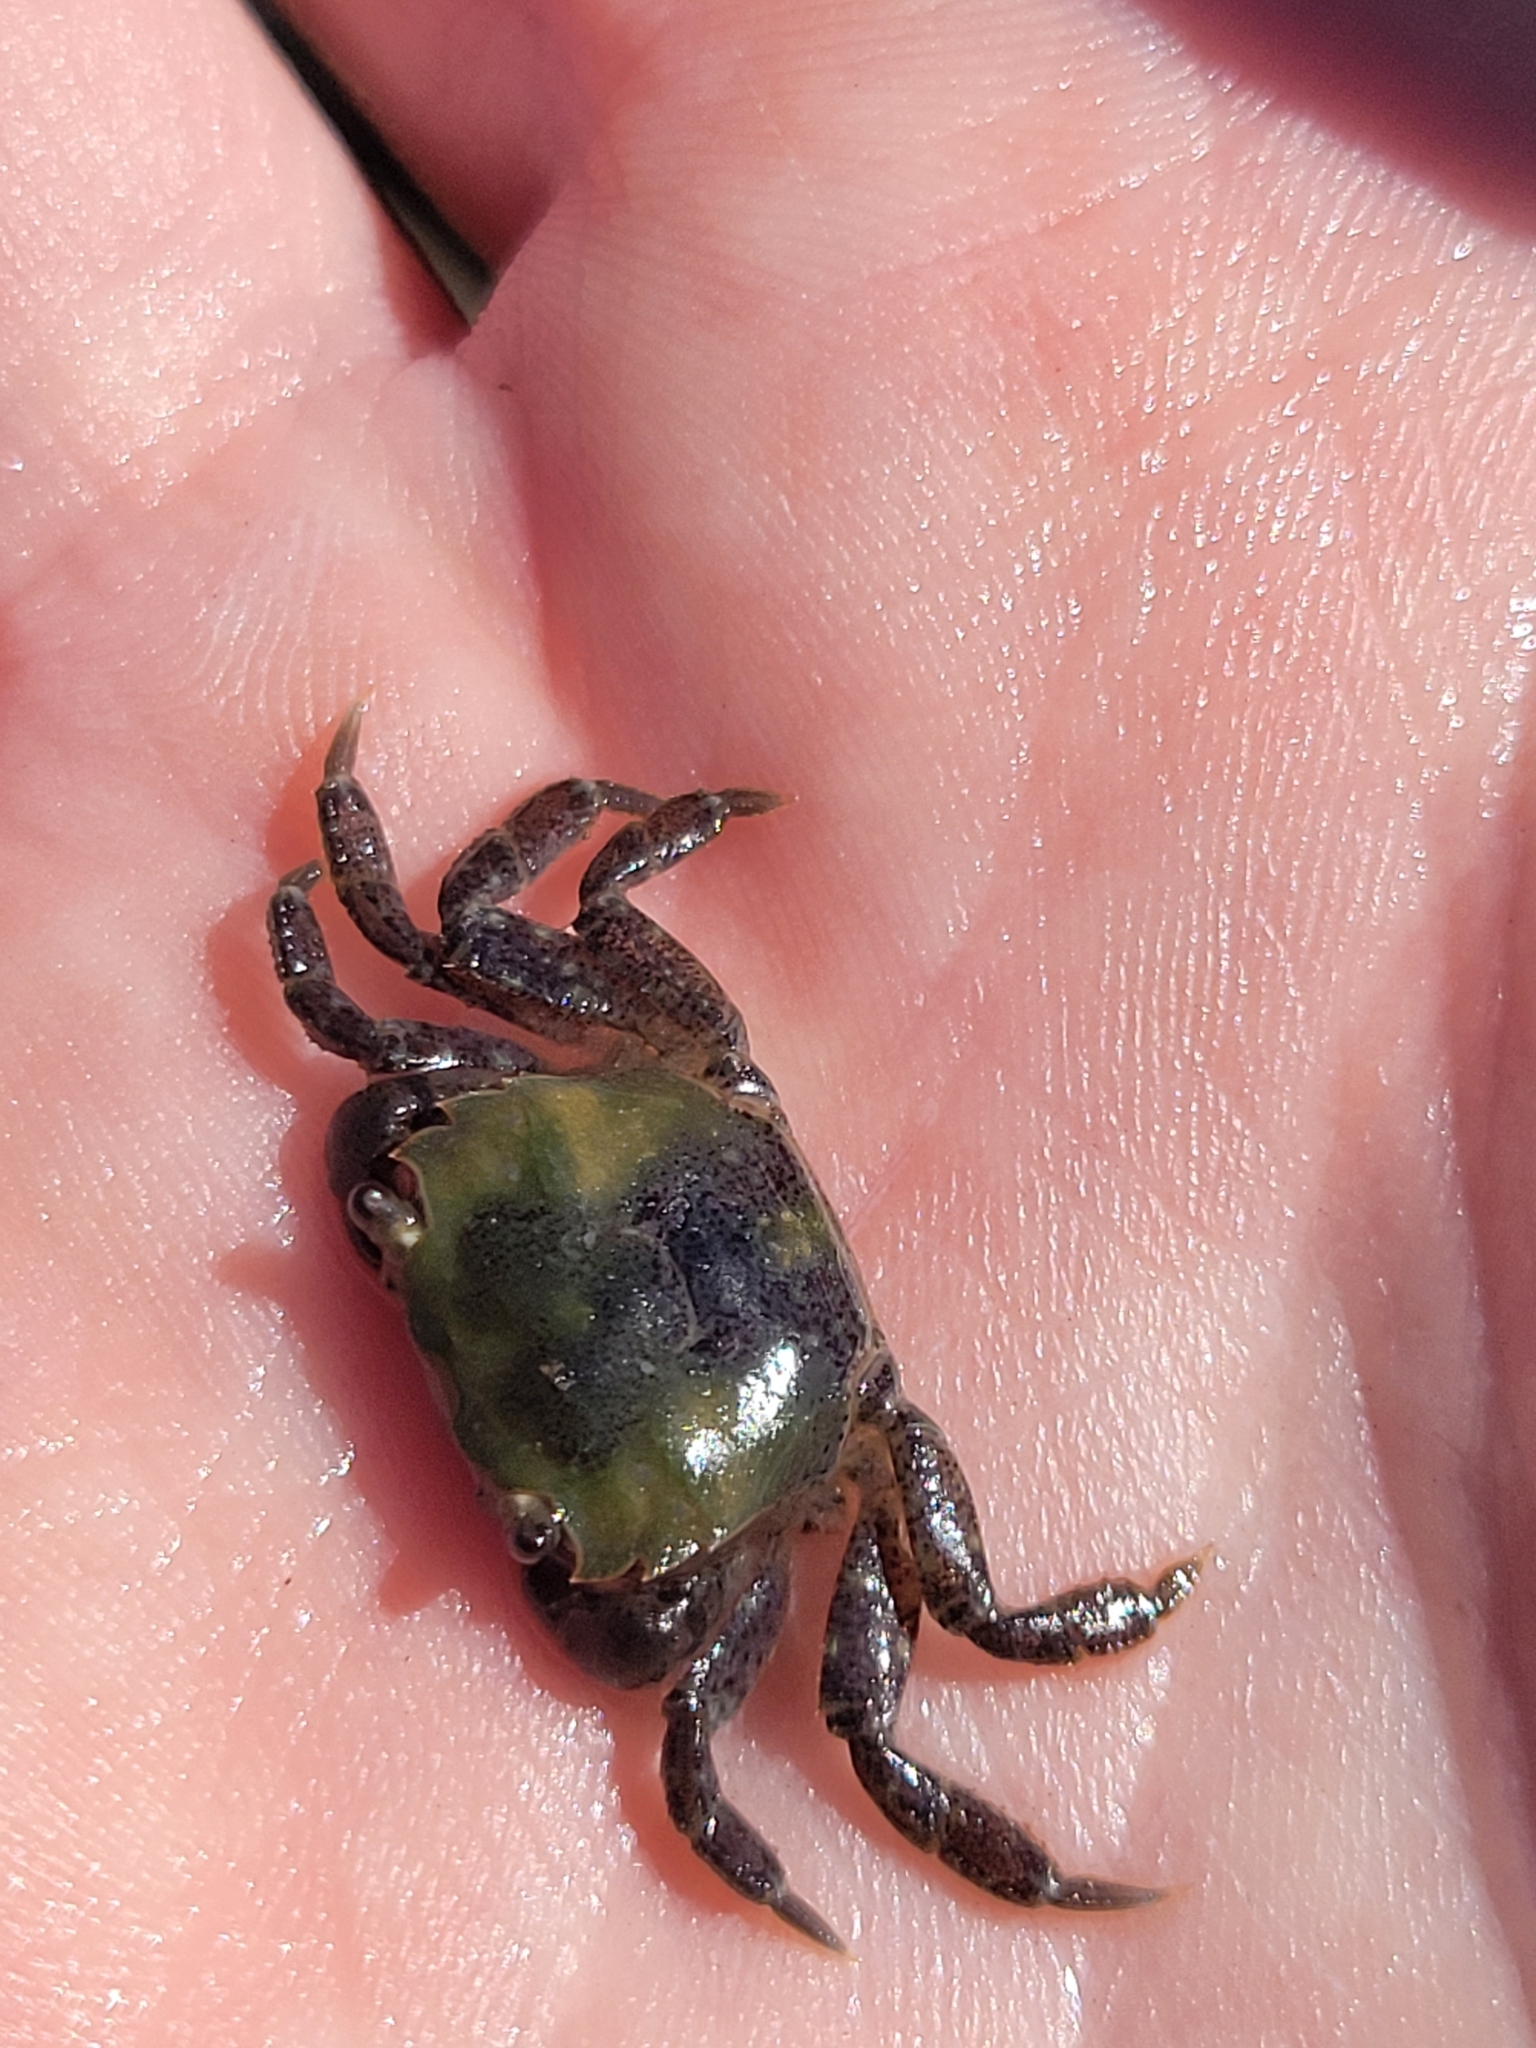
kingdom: Animalia
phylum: Arthropoda
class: Malacostraca
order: Decapoda
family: Varunidae
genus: Hemigrapsus
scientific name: Hemigrapsus oregonensis
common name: Yellow shore crab
